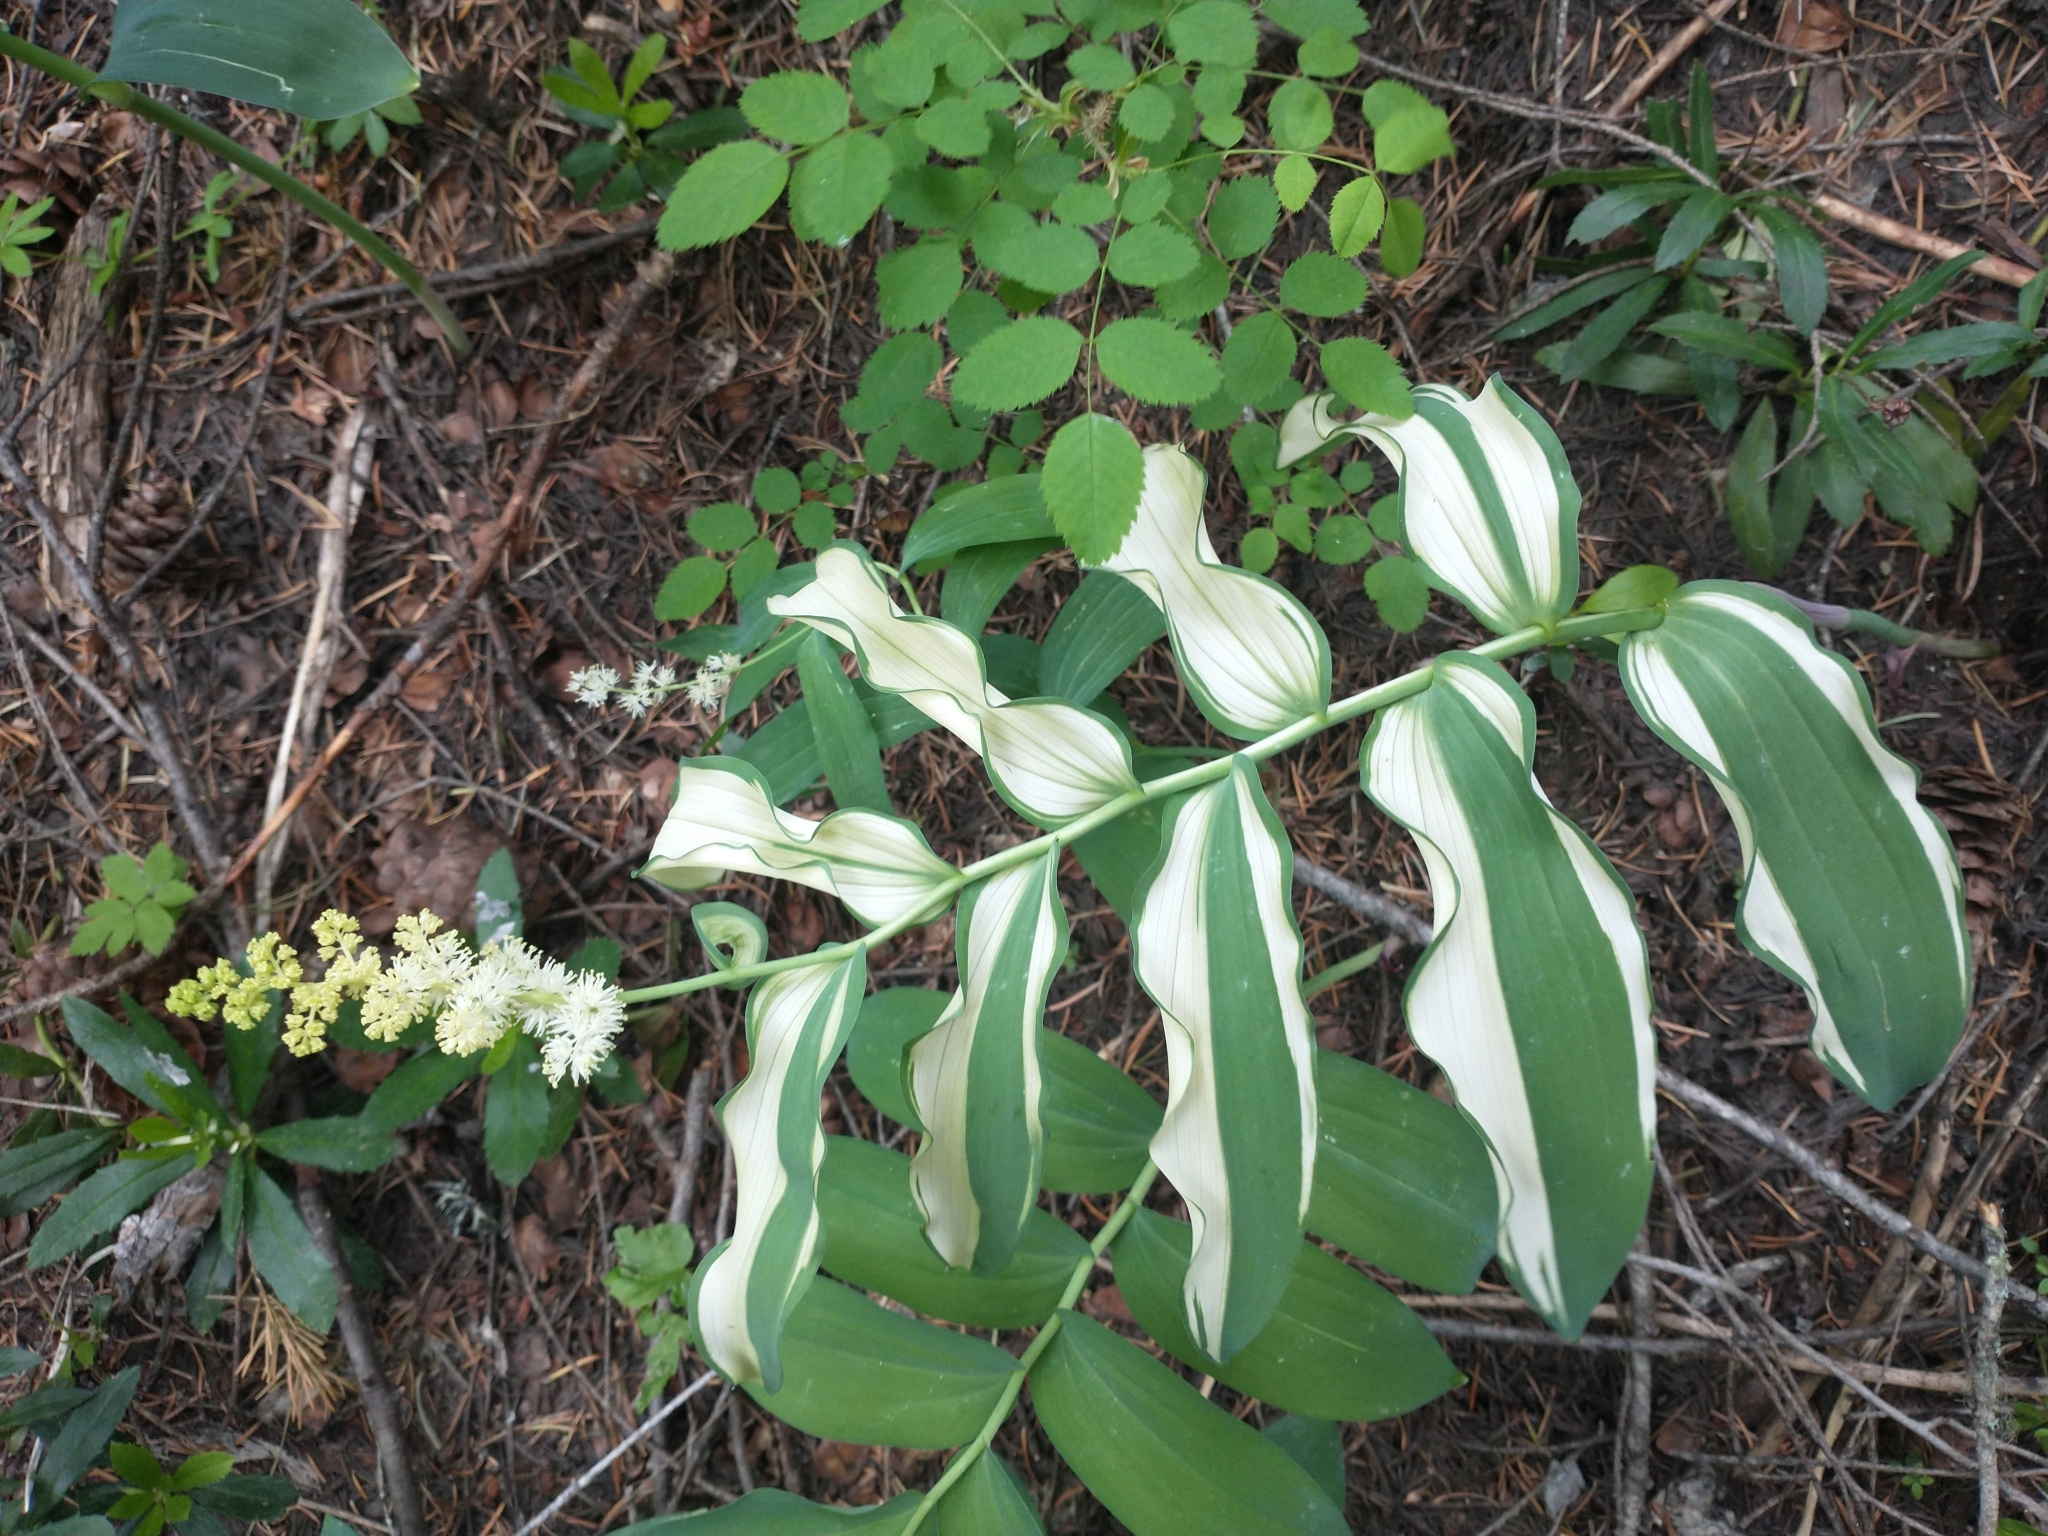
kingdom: Plantae
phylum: Tracheophyta
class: Liliopsida
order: Asparagales
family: Asparagaceae
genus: Maianthemum
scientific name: Maianthemum racemosum
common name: False spikenard
